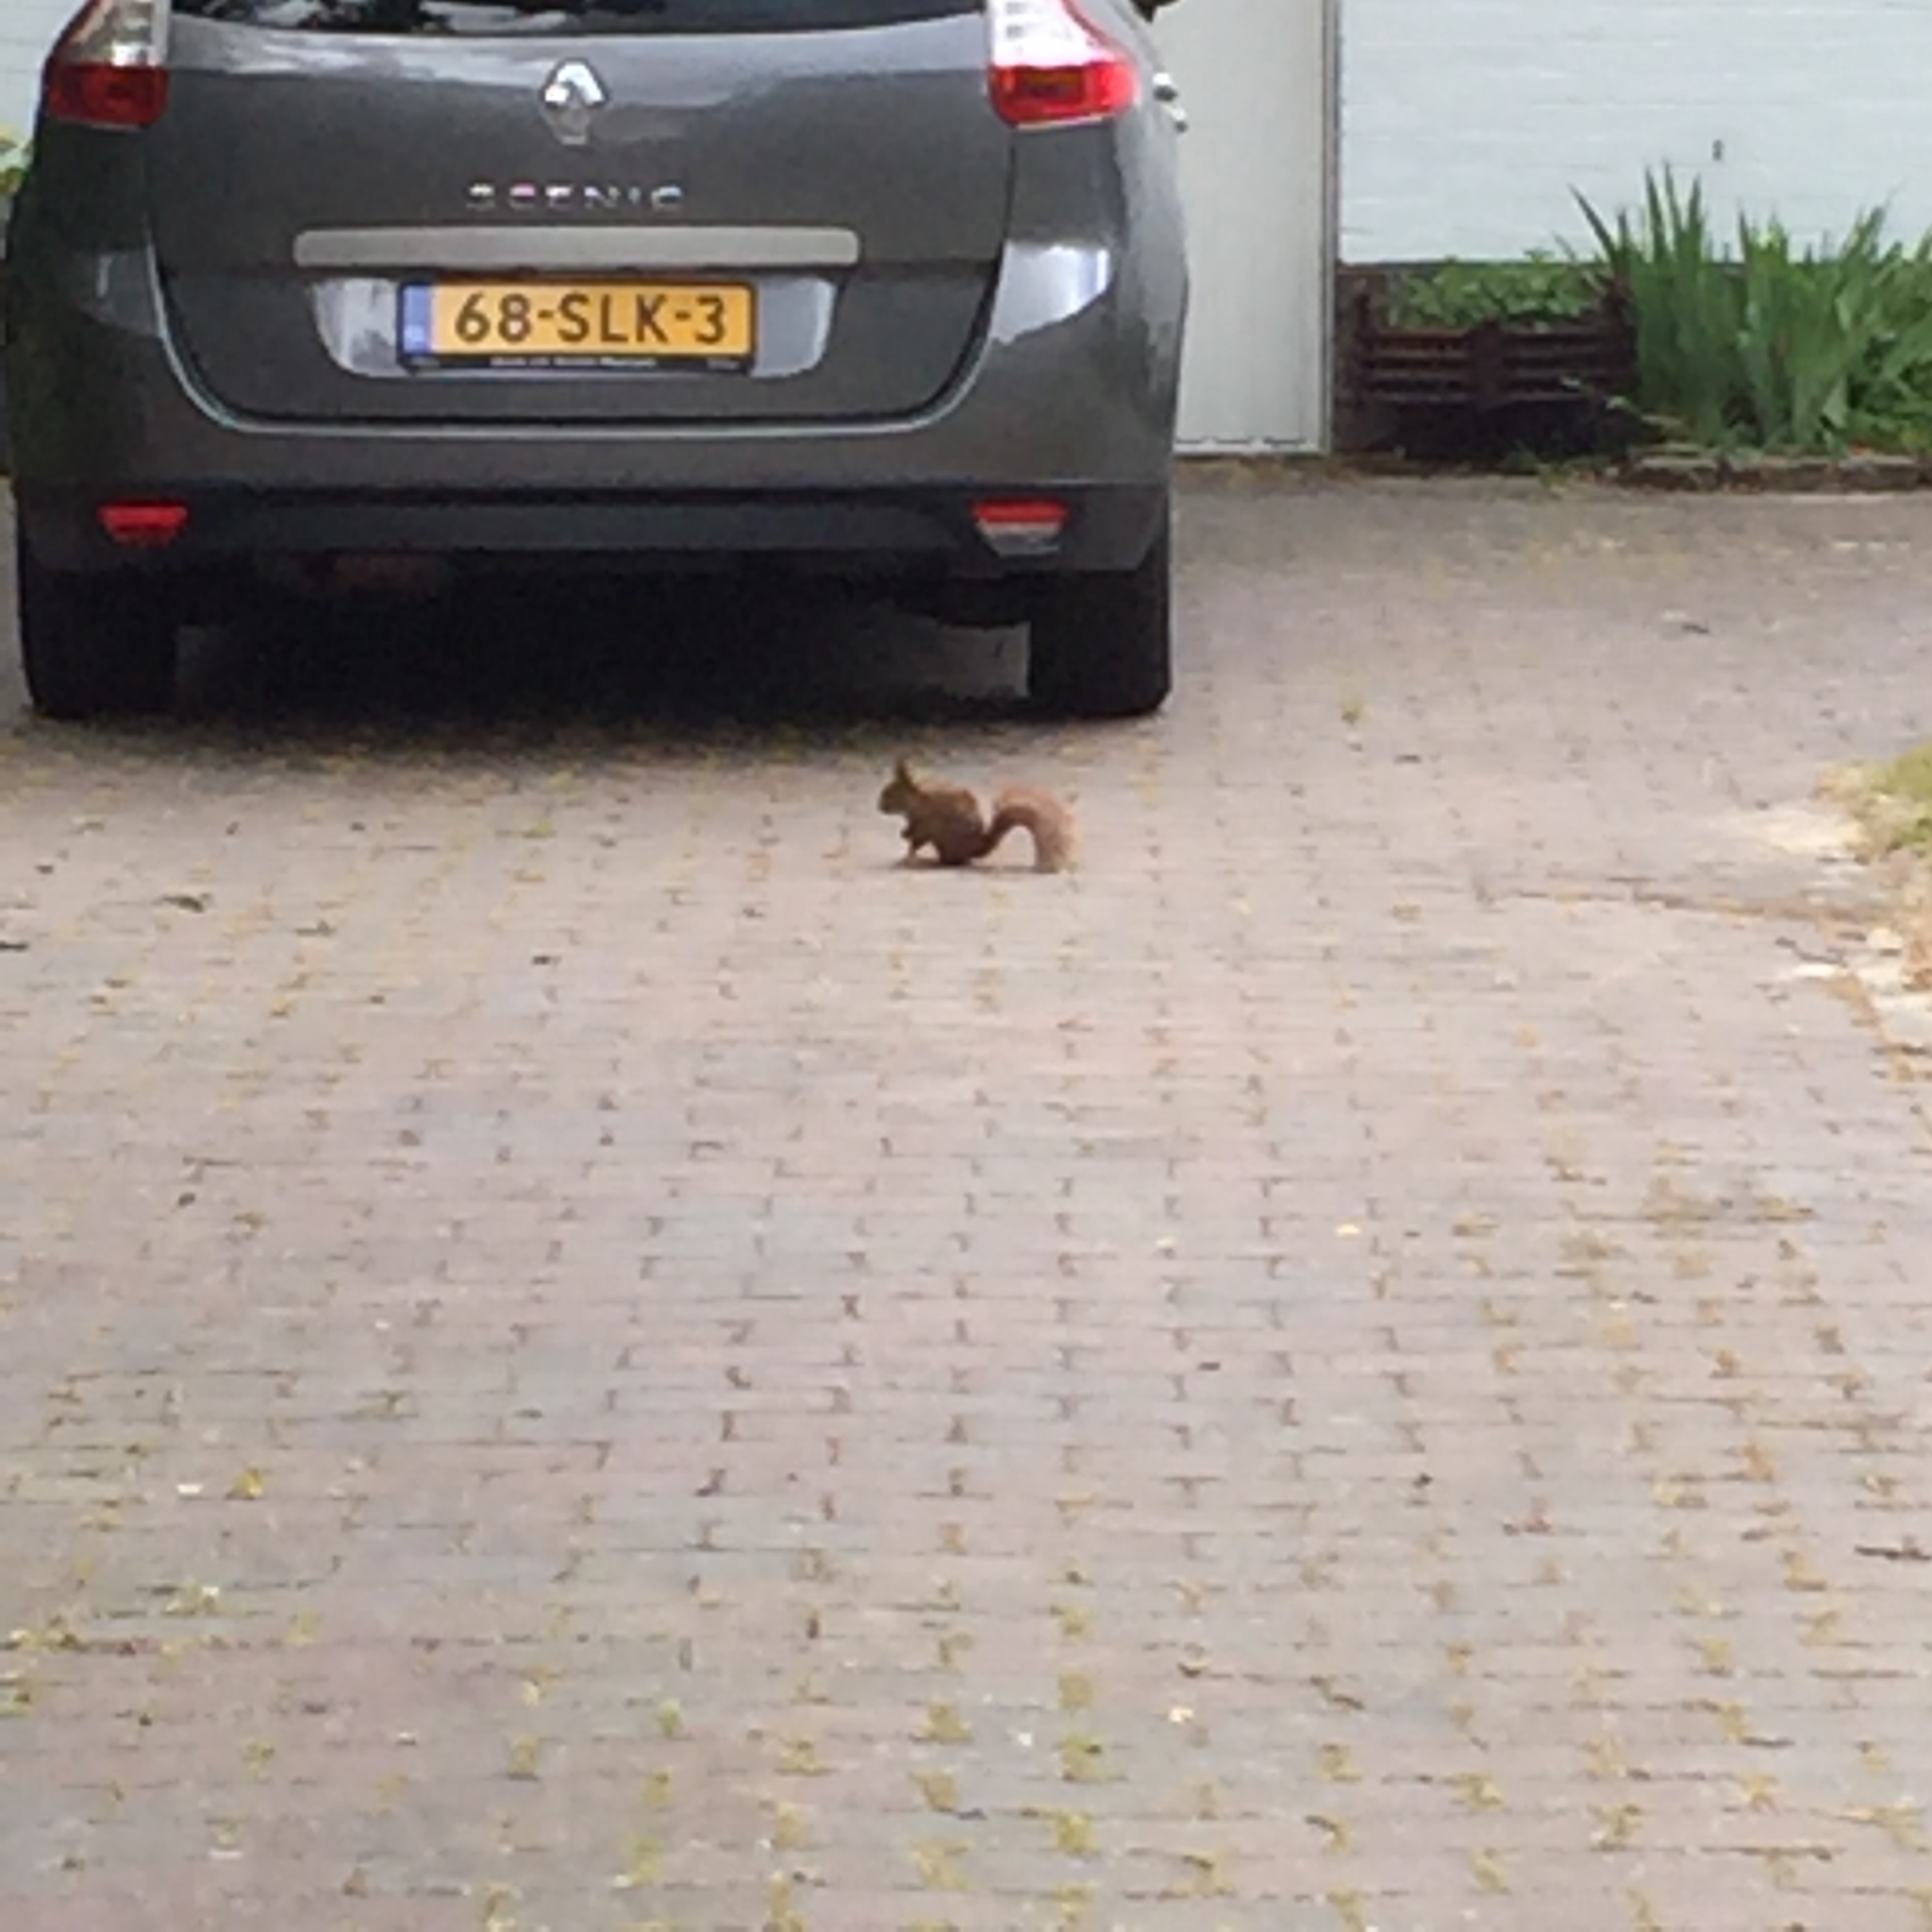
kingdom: Animalia
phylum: Chordata
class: Mammalia
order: Rodentia
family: Sciuridae
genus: Sciurus
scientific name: Sciurus vulgaris
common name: Eurasian red squirrel
